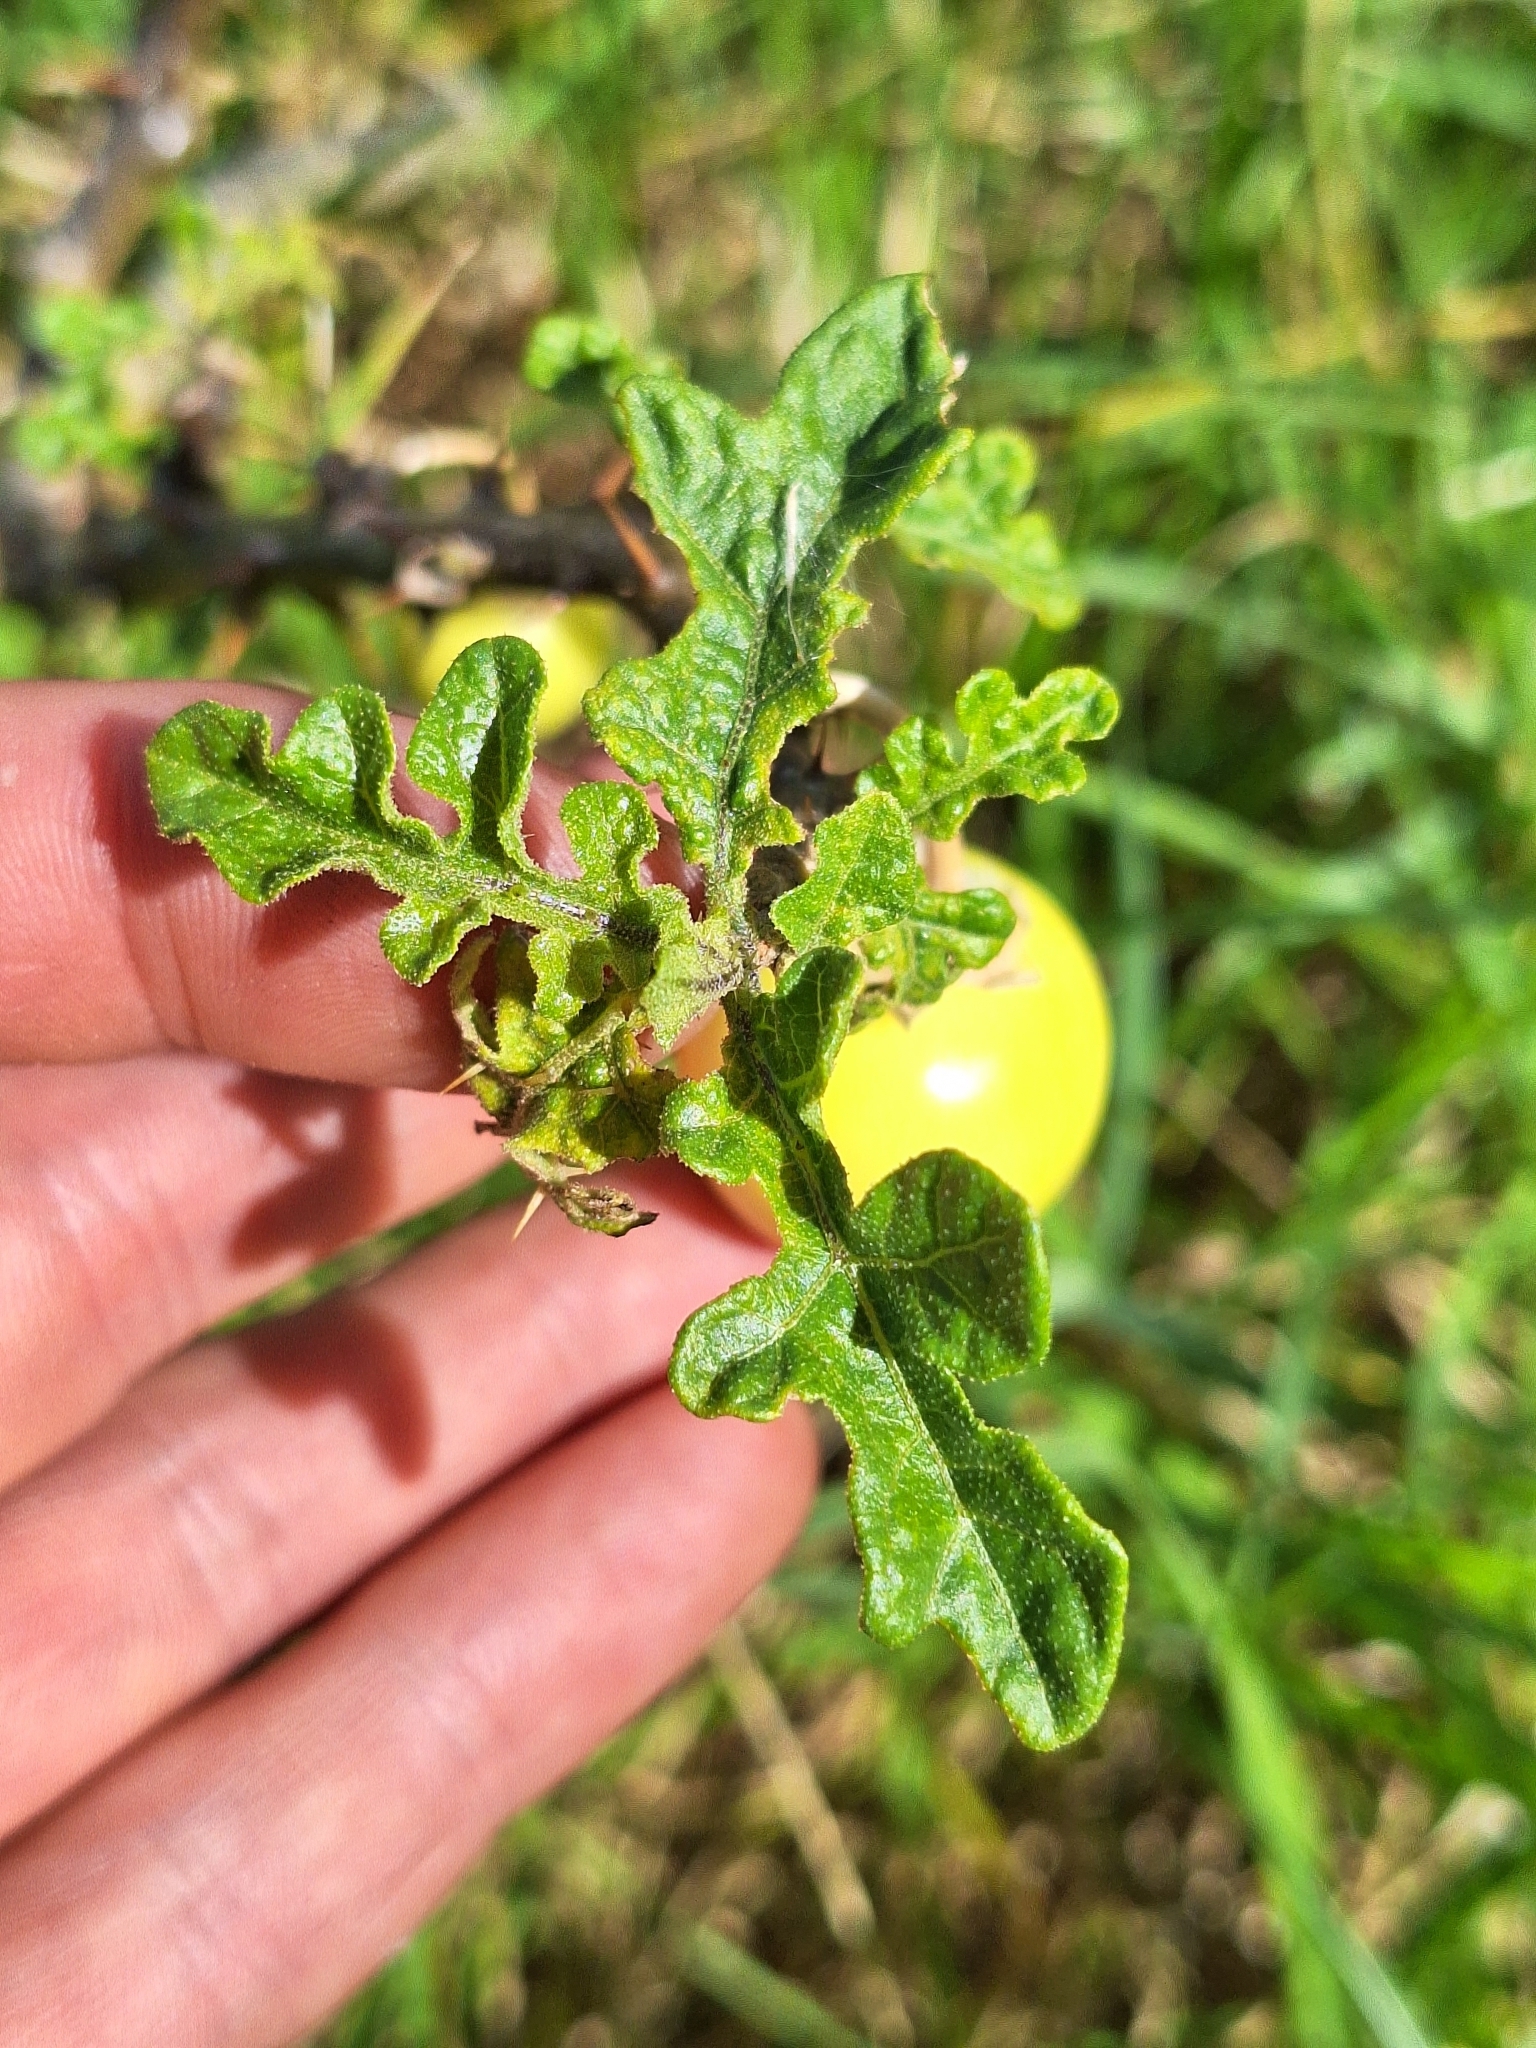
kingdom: Plantae
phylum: Tracheophyta
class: Magnoliopsida
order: Solanales
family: Solanaceae
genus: Solanum
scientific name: Solanum linnaeanum
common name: Nightshade
